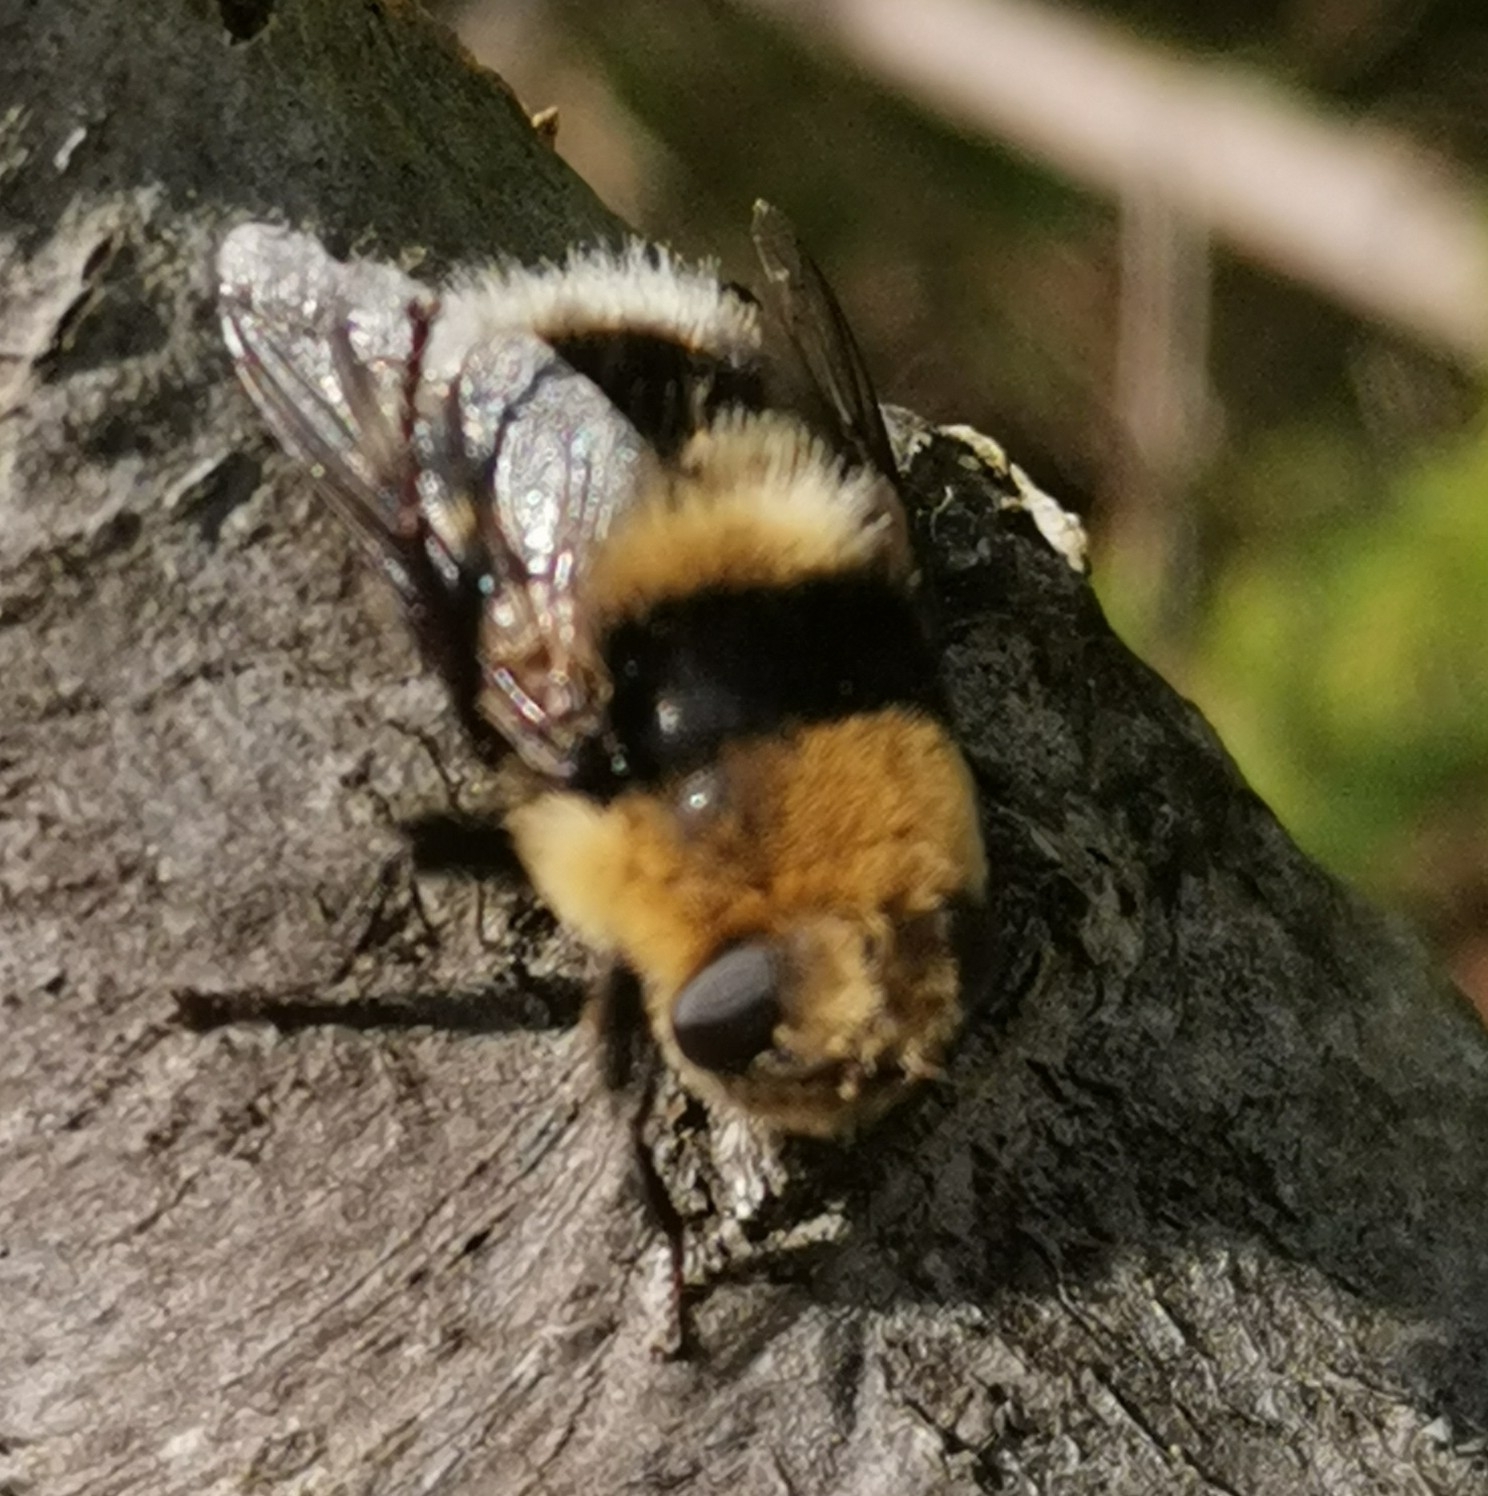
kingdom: Animalia
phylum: Arthropoda
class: Insecta
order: Diptera
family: Oestridae
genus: Cephenemyia
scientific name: Cephenemyia ulrichii
